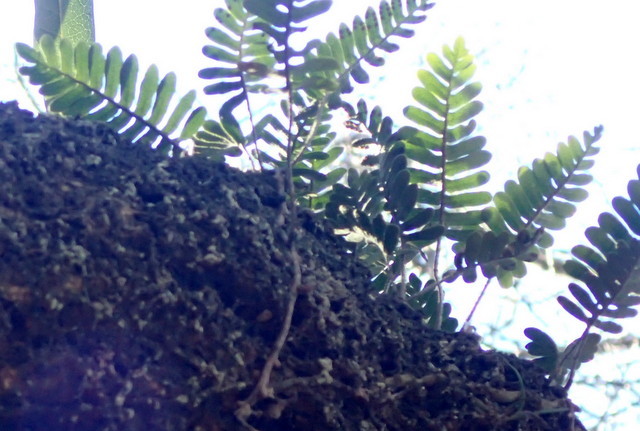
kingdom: Plantae
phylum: Tracheophyta
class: Polypodiopsida
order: Polypodiales
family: Polypodiaceae
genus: Pleopeltis
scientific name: Pleopeltis michauxiana
